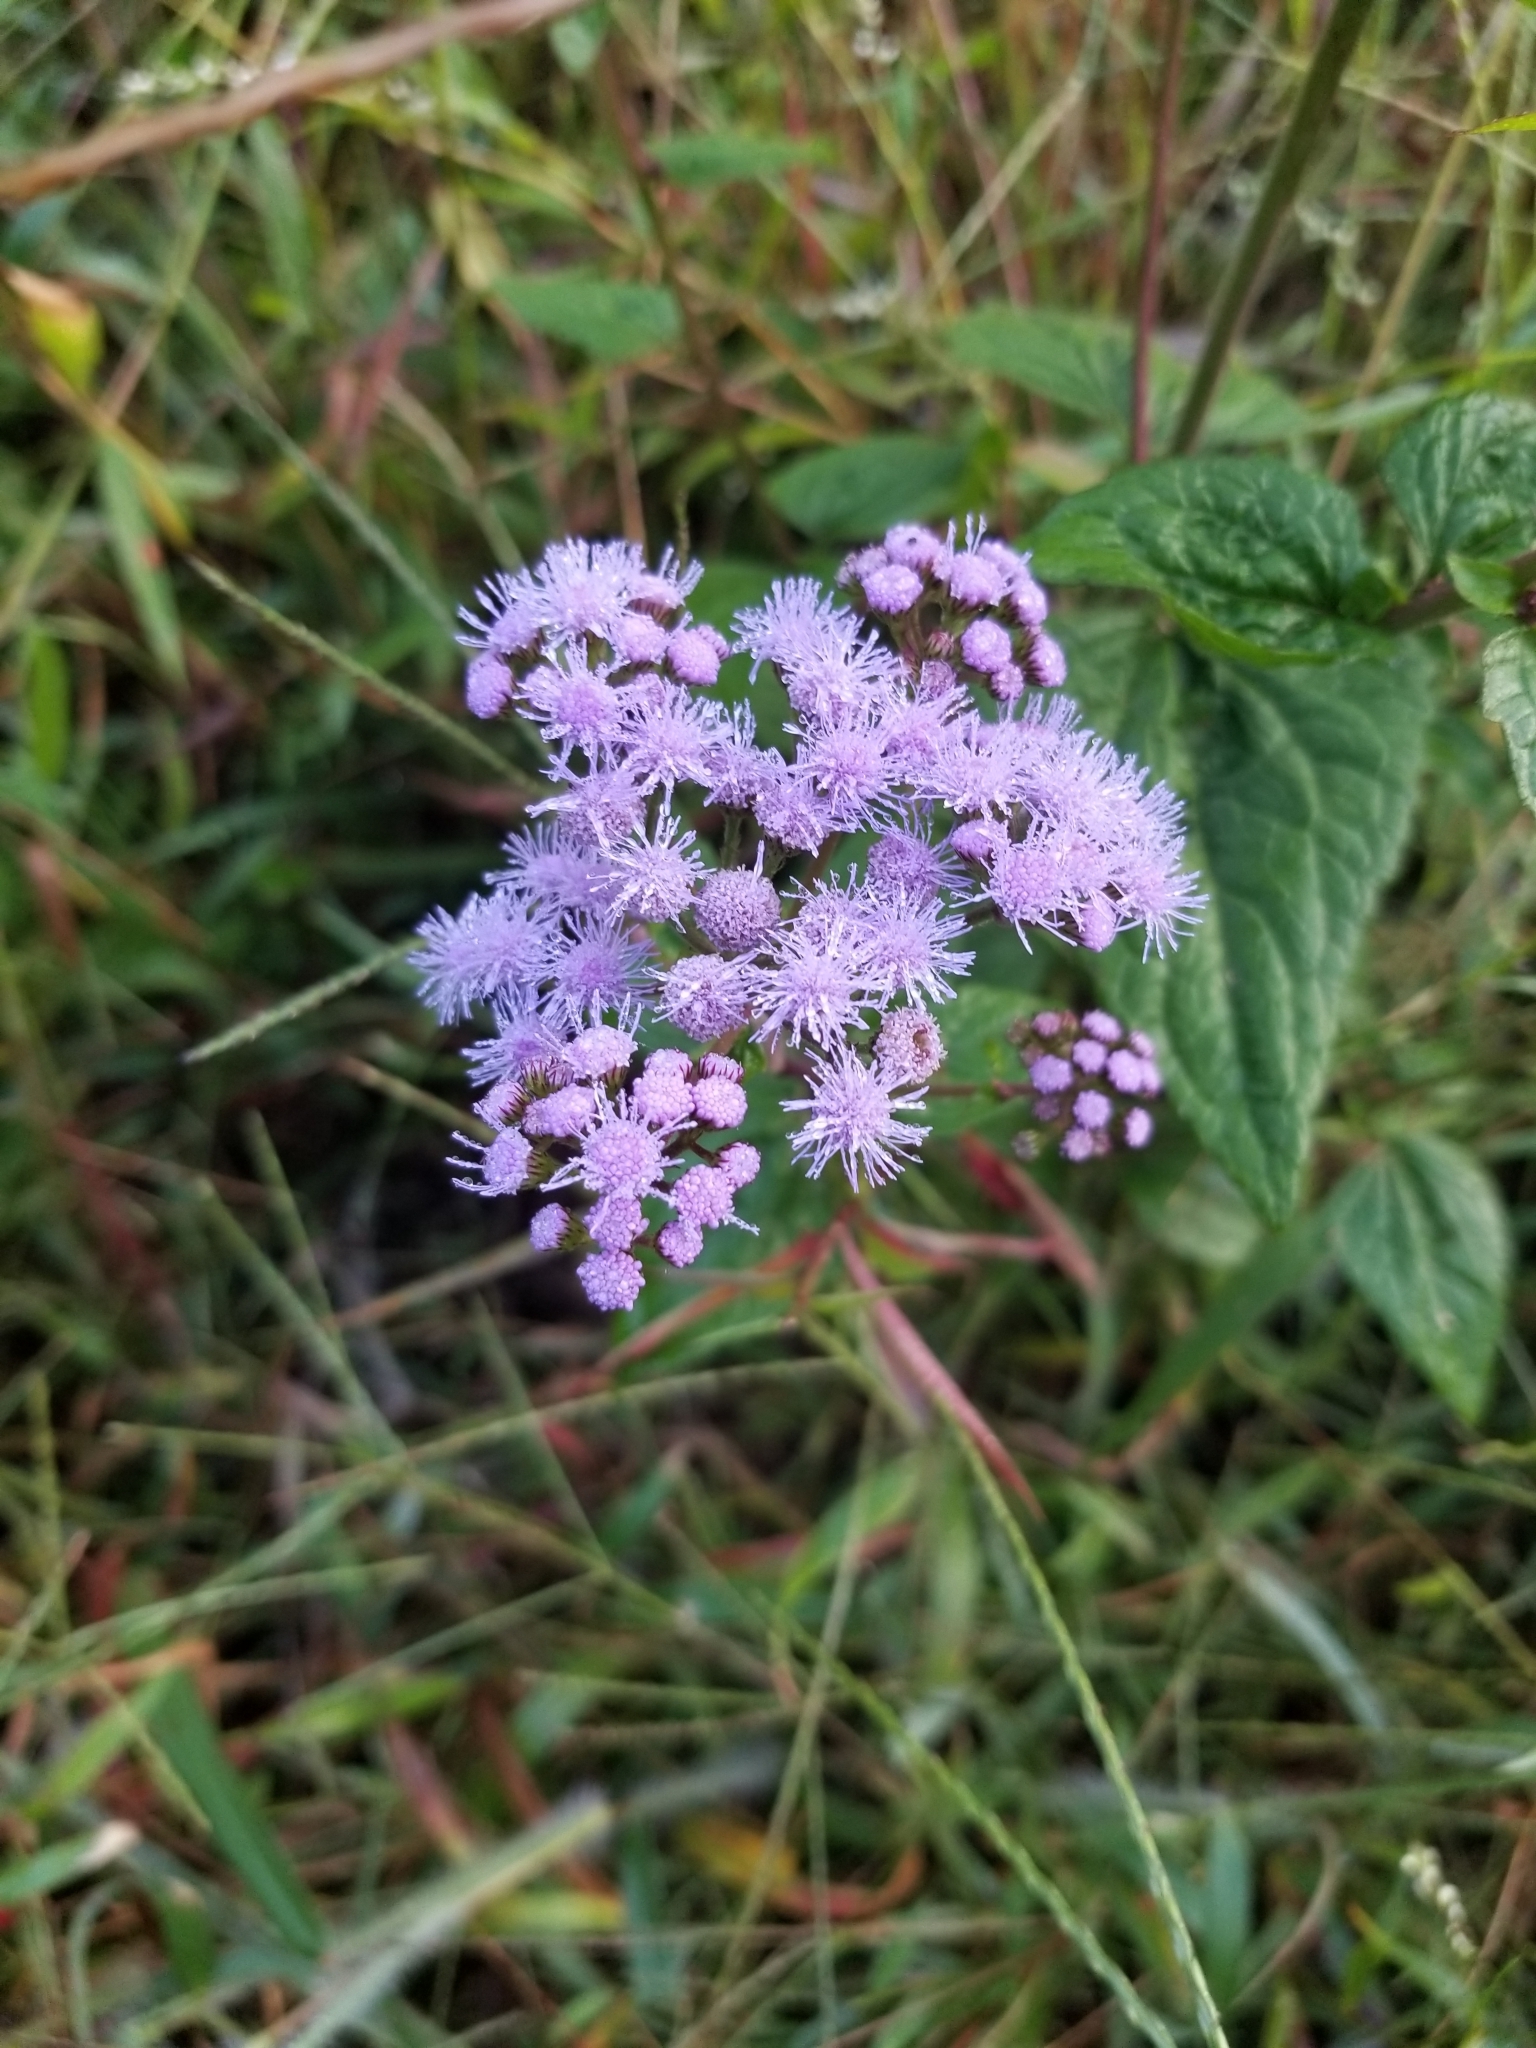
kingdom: Plantae
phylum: Tracheophyta
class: Magnoliopsida
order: Asterales
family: Asteraceae
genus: Conoclinium
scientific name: Conoclinium coelestinum
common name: Blue mistflower
